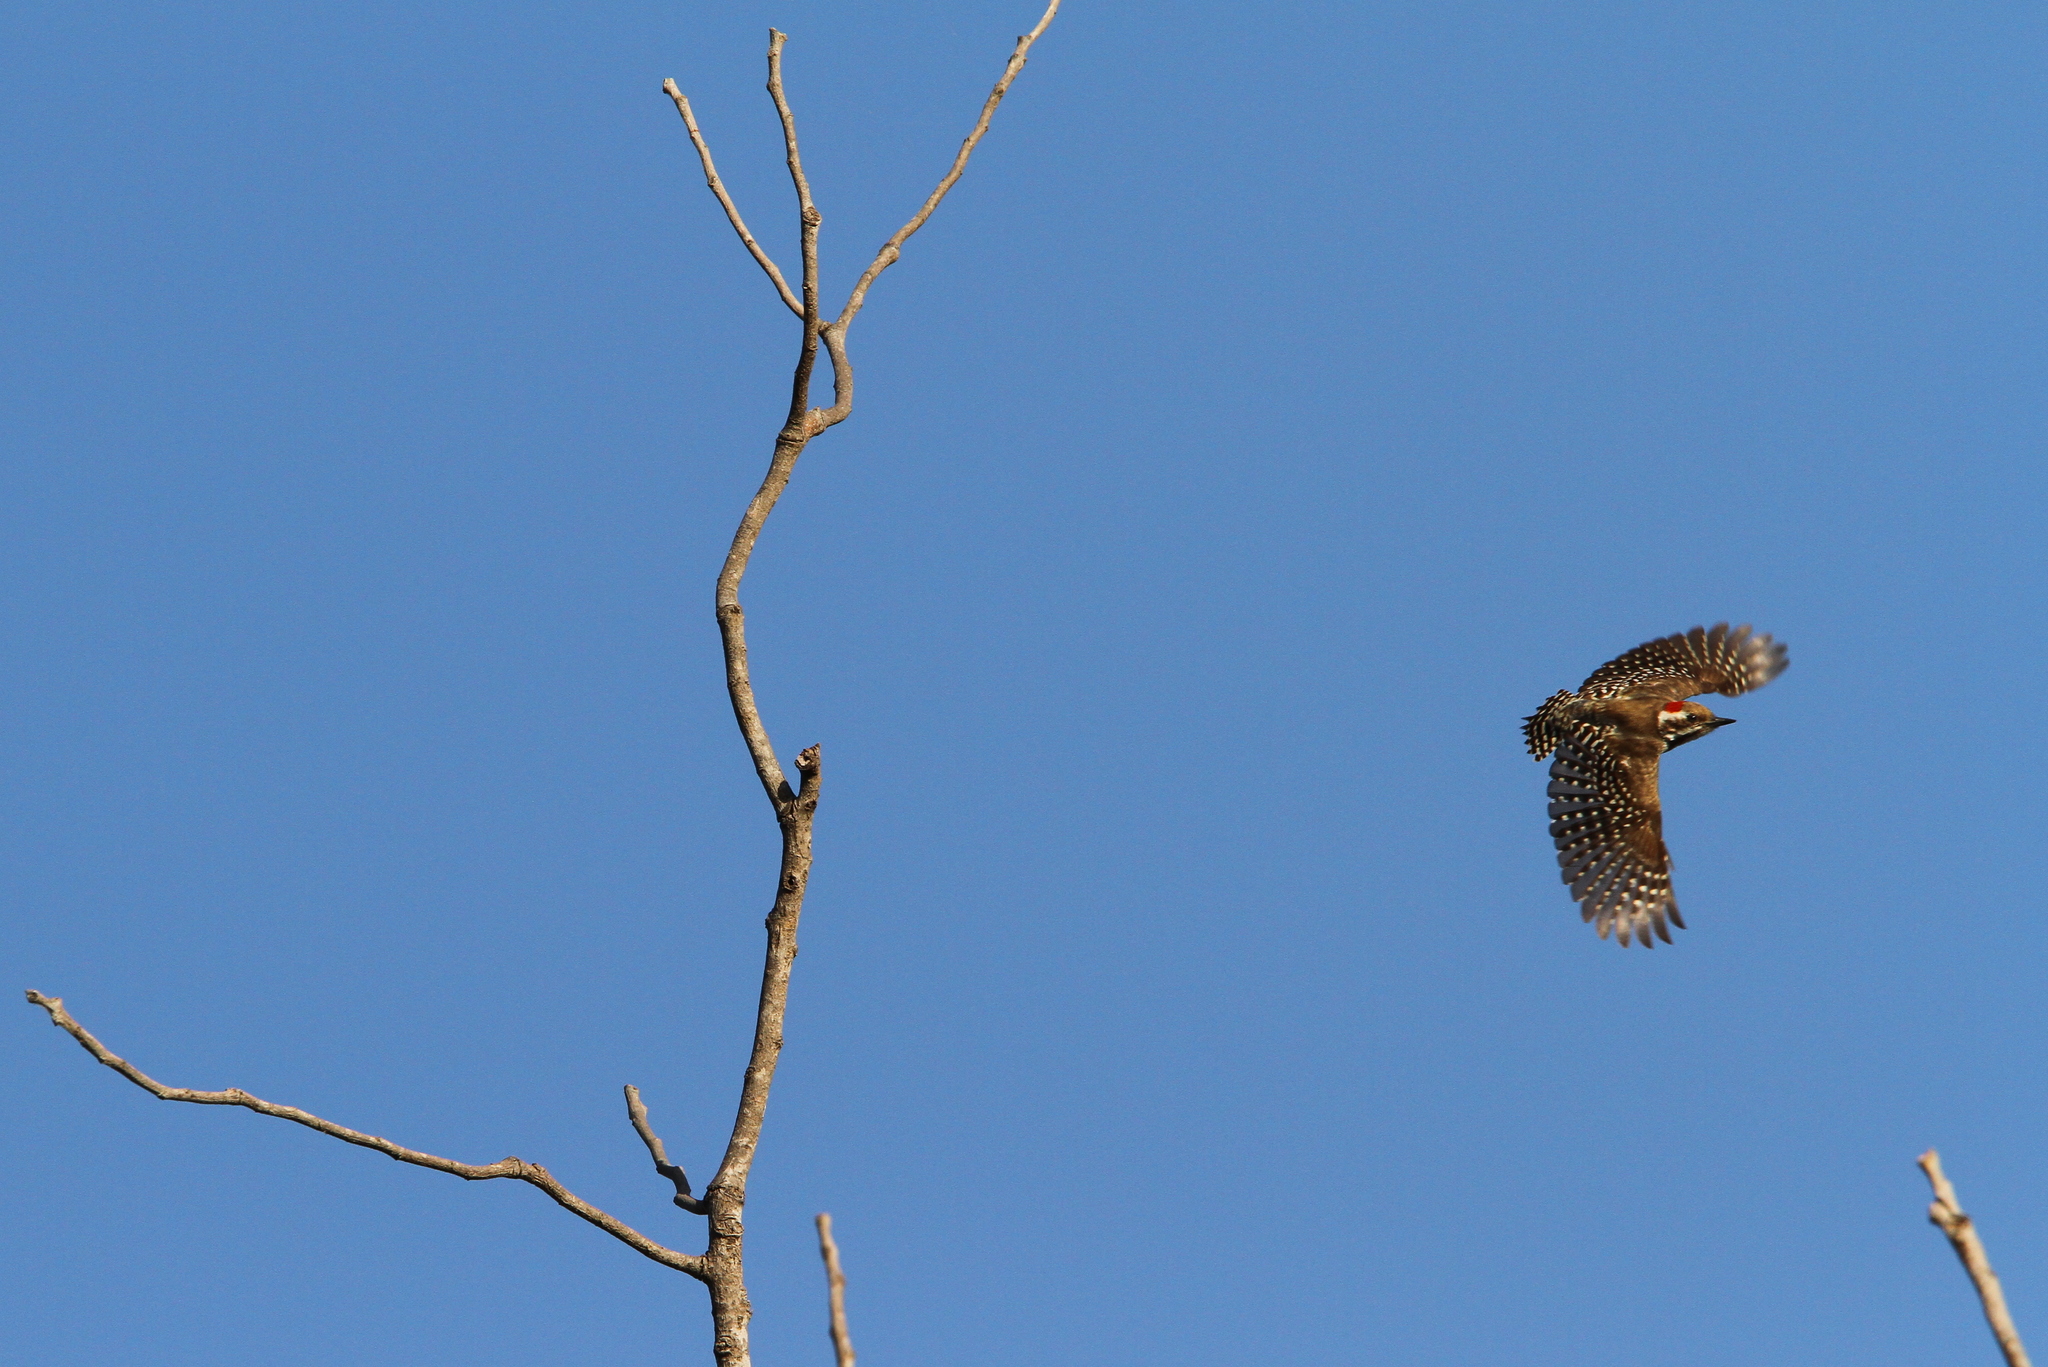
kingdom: Animalia
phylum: Chordata
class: Aves
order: Piciformes
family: Picidae
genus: Dendropicos
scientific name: Dendropicos obsoletus
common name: Brown-backed woodpecker
